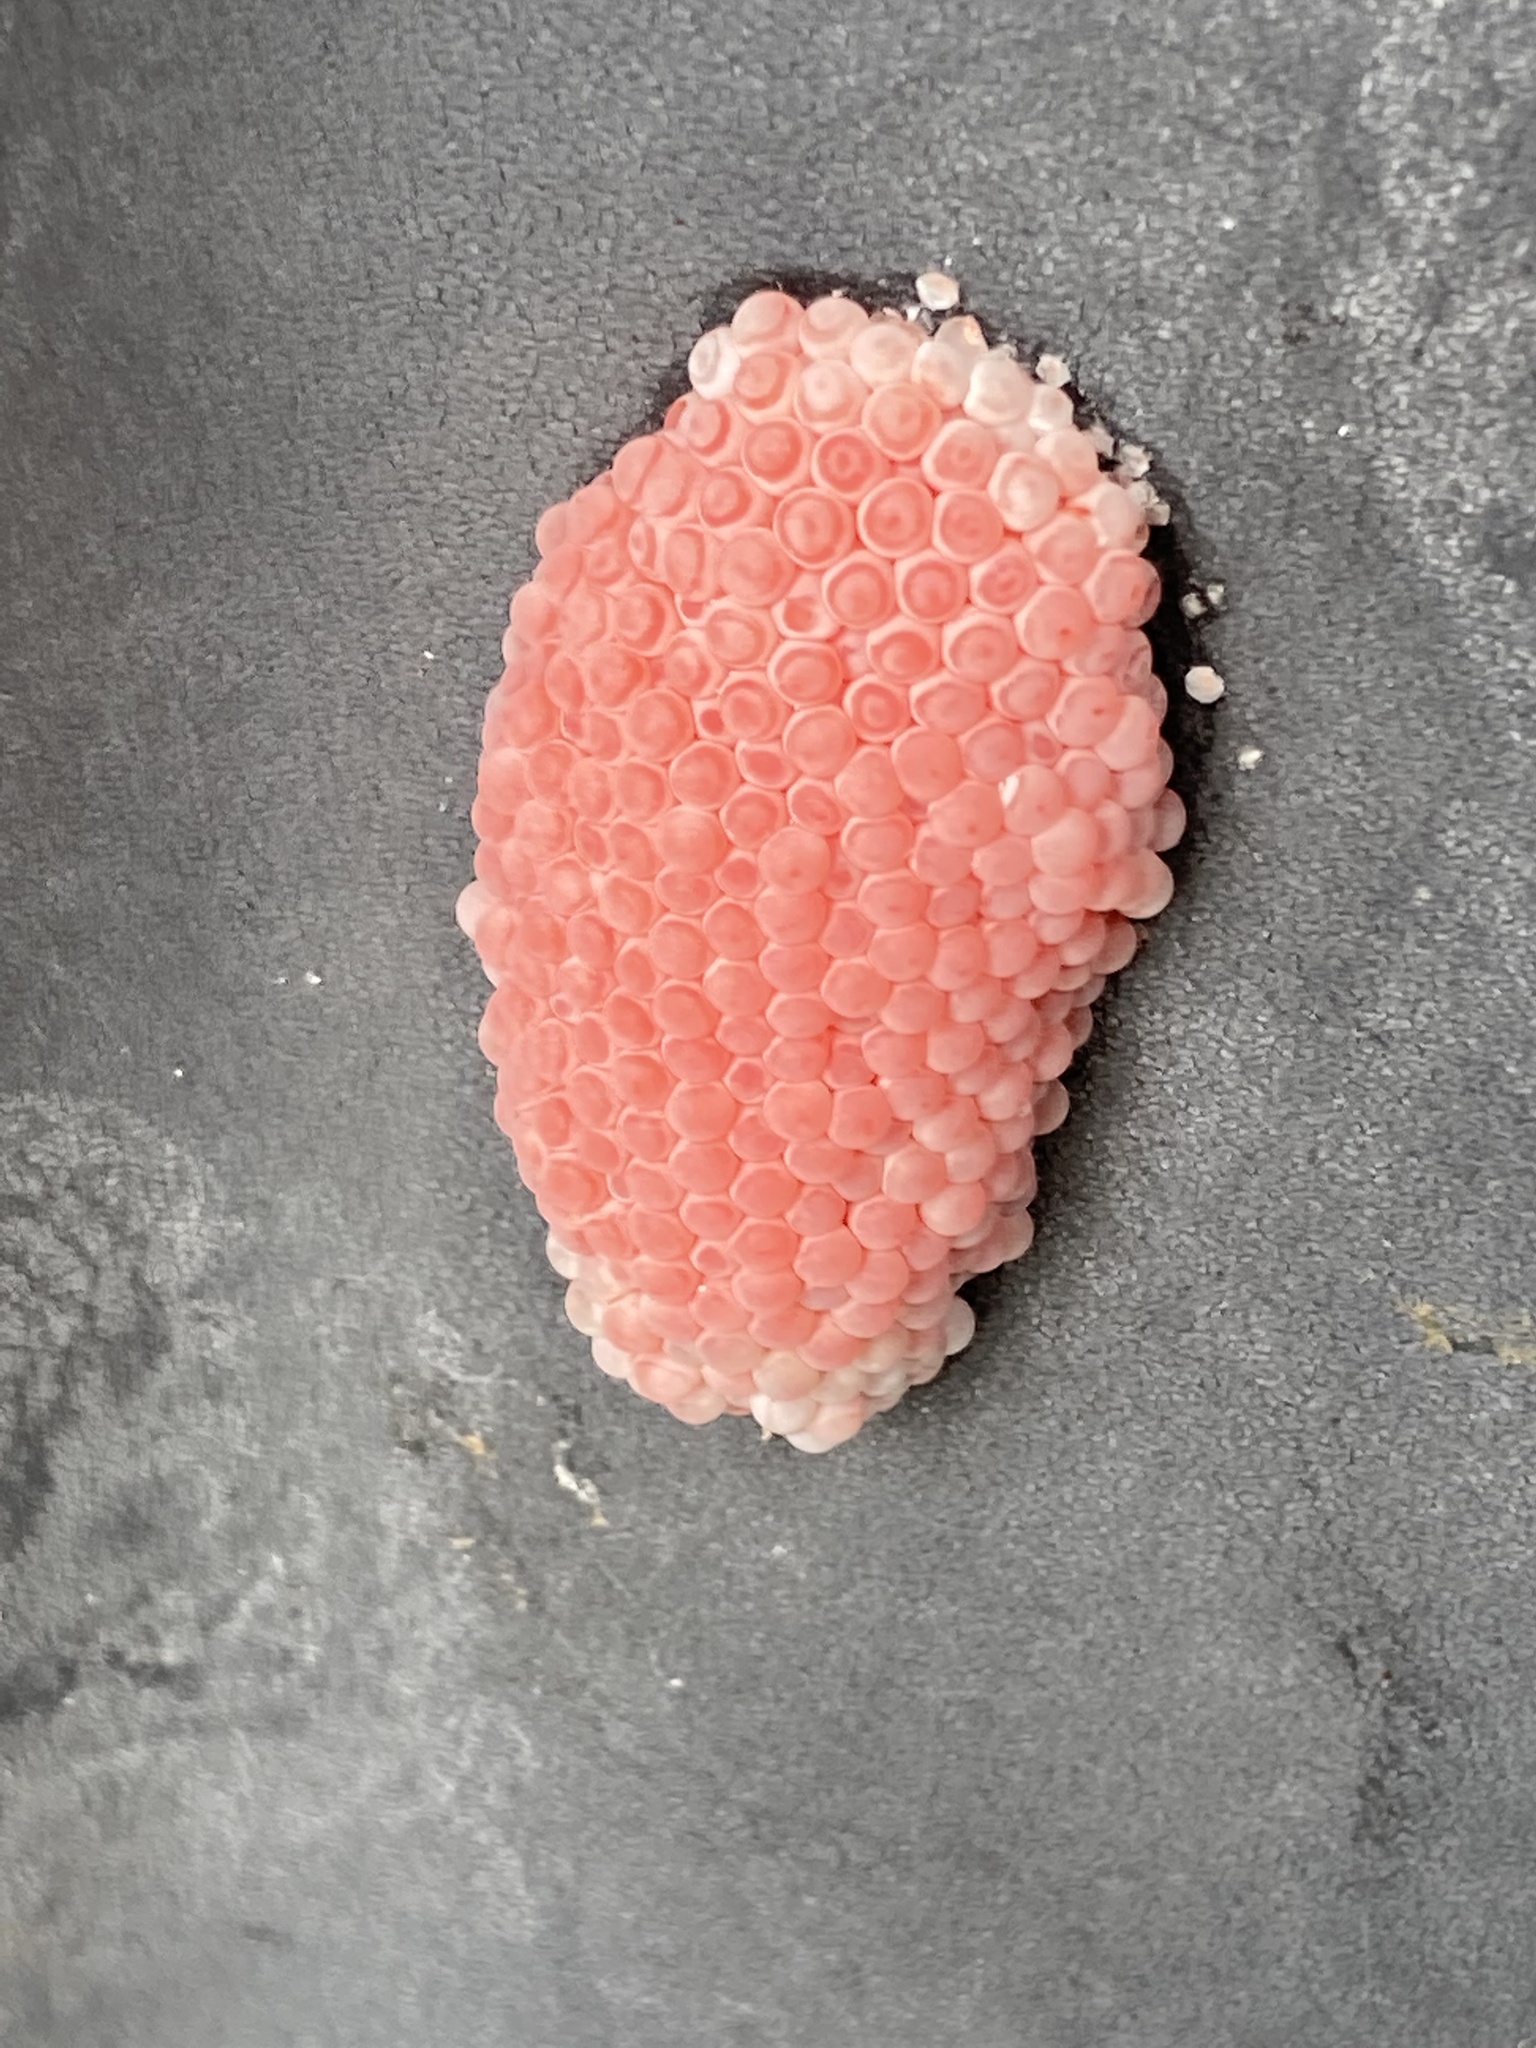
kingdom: Animalia
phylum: Mollusca
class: Gastropoda
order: Architaenioglossa
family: Ampullariidae
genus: Pomacea
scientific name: Pomacea maculata
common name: Giant applesnail
